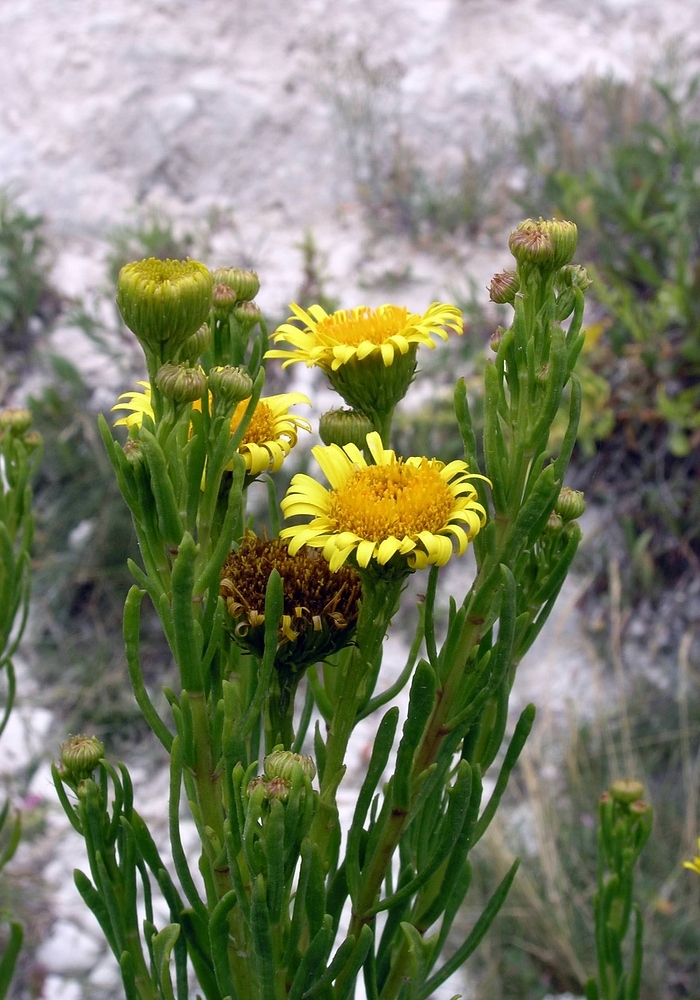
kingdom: Plantae
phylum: Tracheophyta
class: Magnoliopsida
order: Asterales
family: Asteraceae
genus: Limbarda
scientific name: Limbarda crithmoides
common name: Golden samphire
